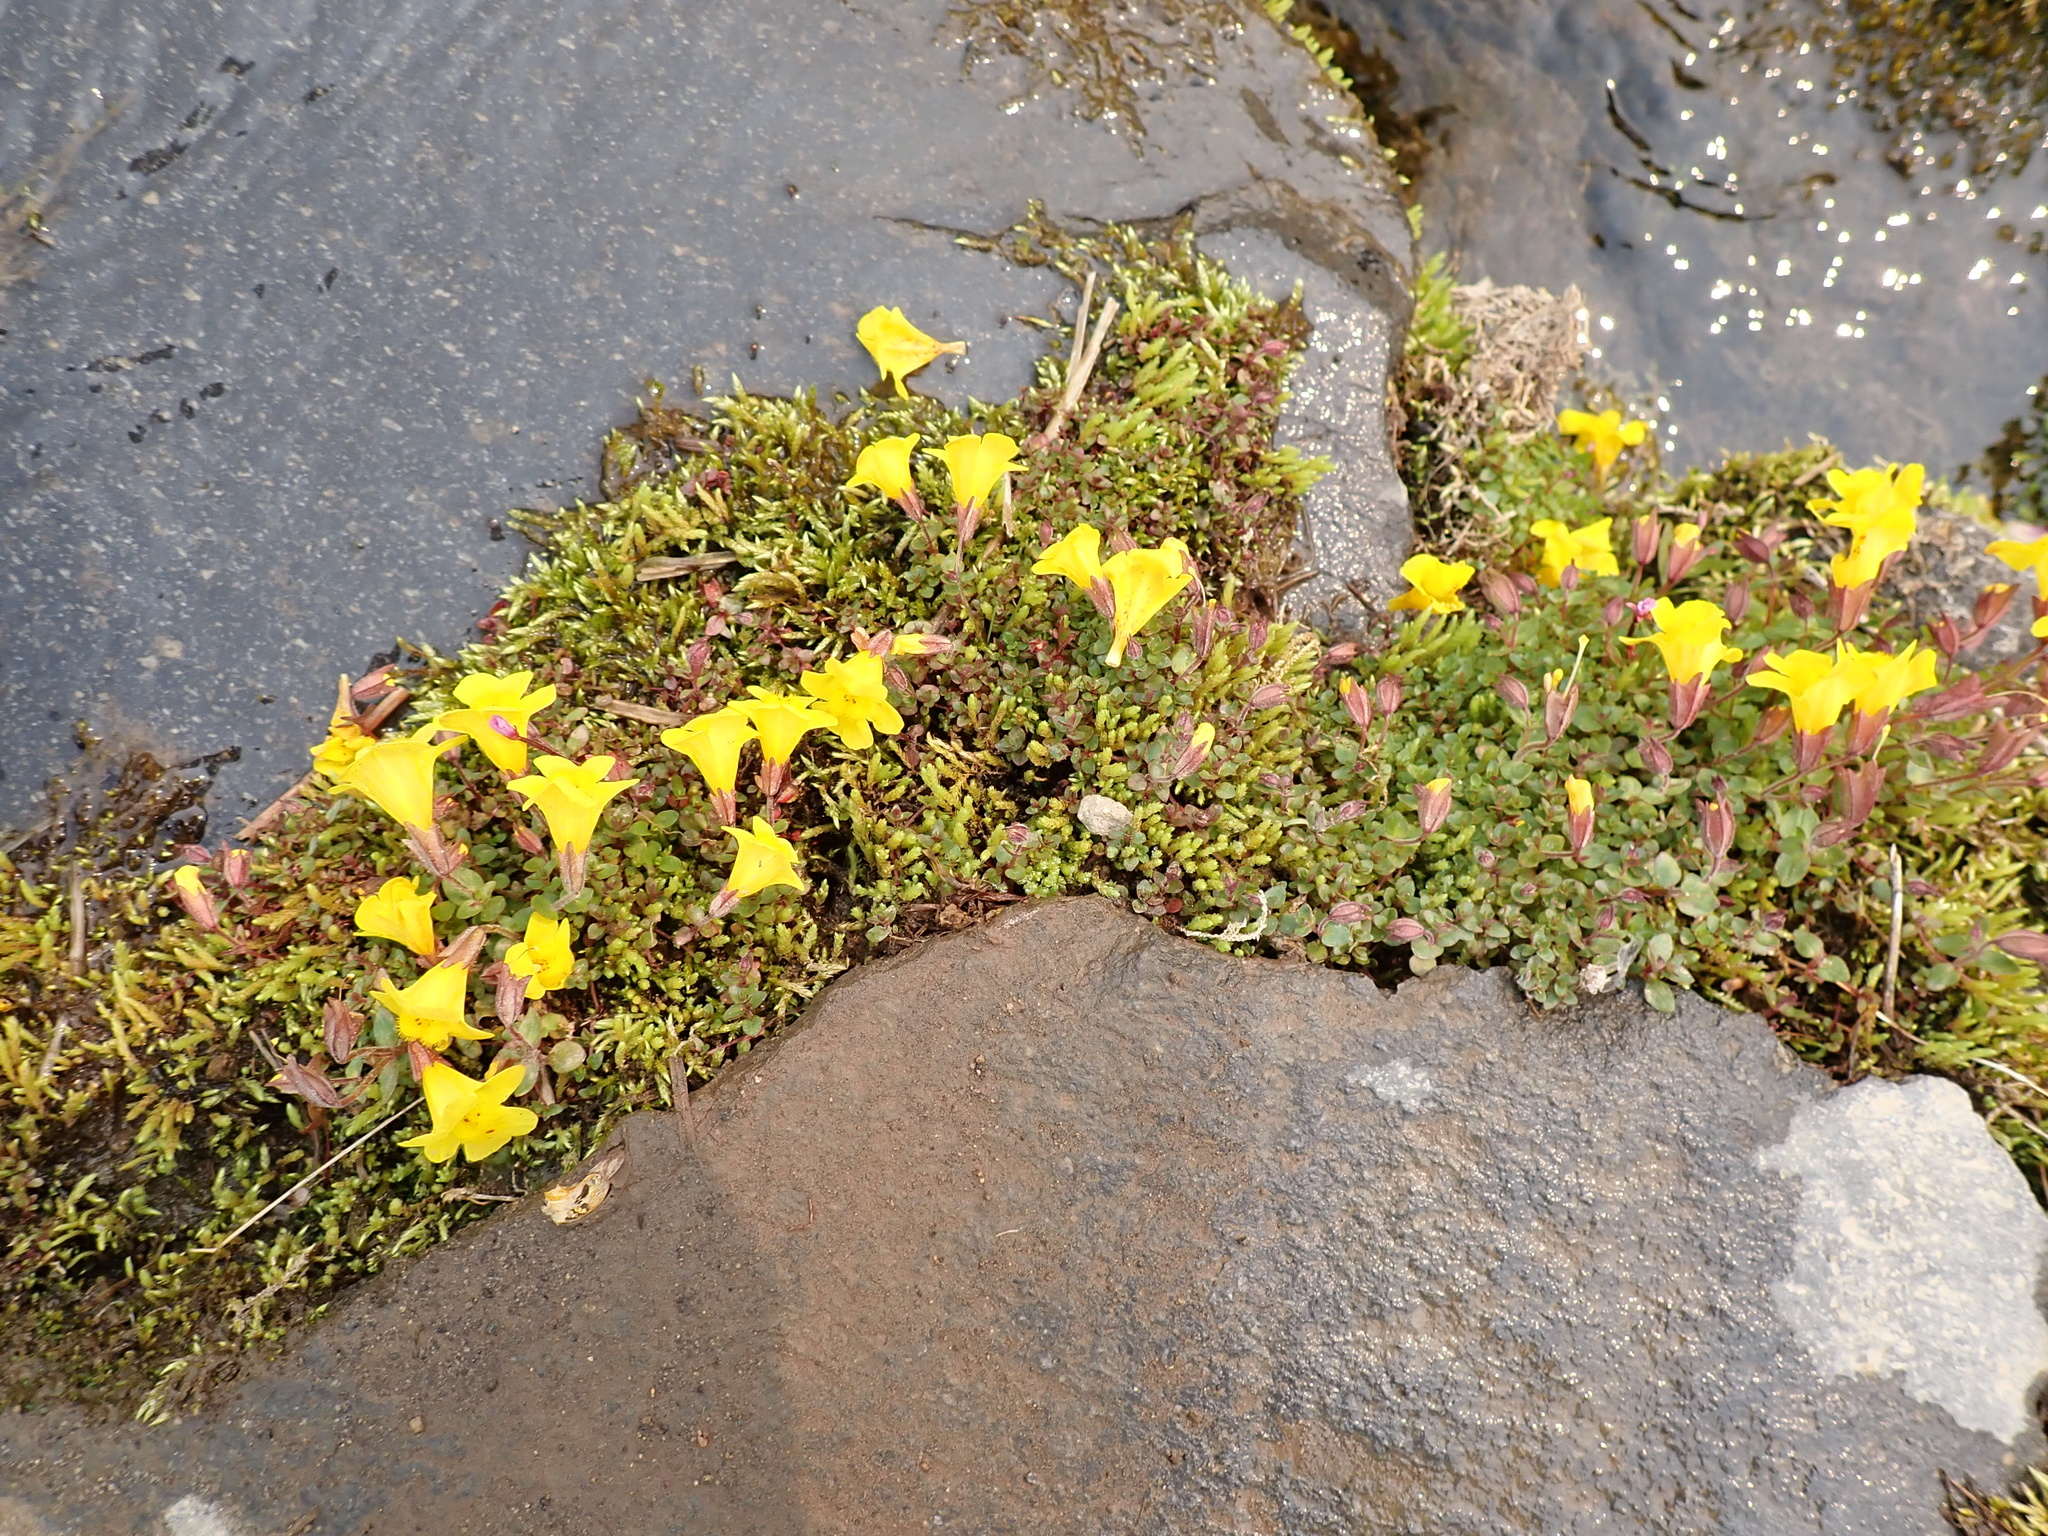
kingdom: Plantae
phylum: Tracheophyta
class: Magnoliopsida
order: Lamiales
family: Phrymaceae
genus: Erythranthe
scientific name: Erythranthe caespitosa
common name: Subalpine monkeyflower
